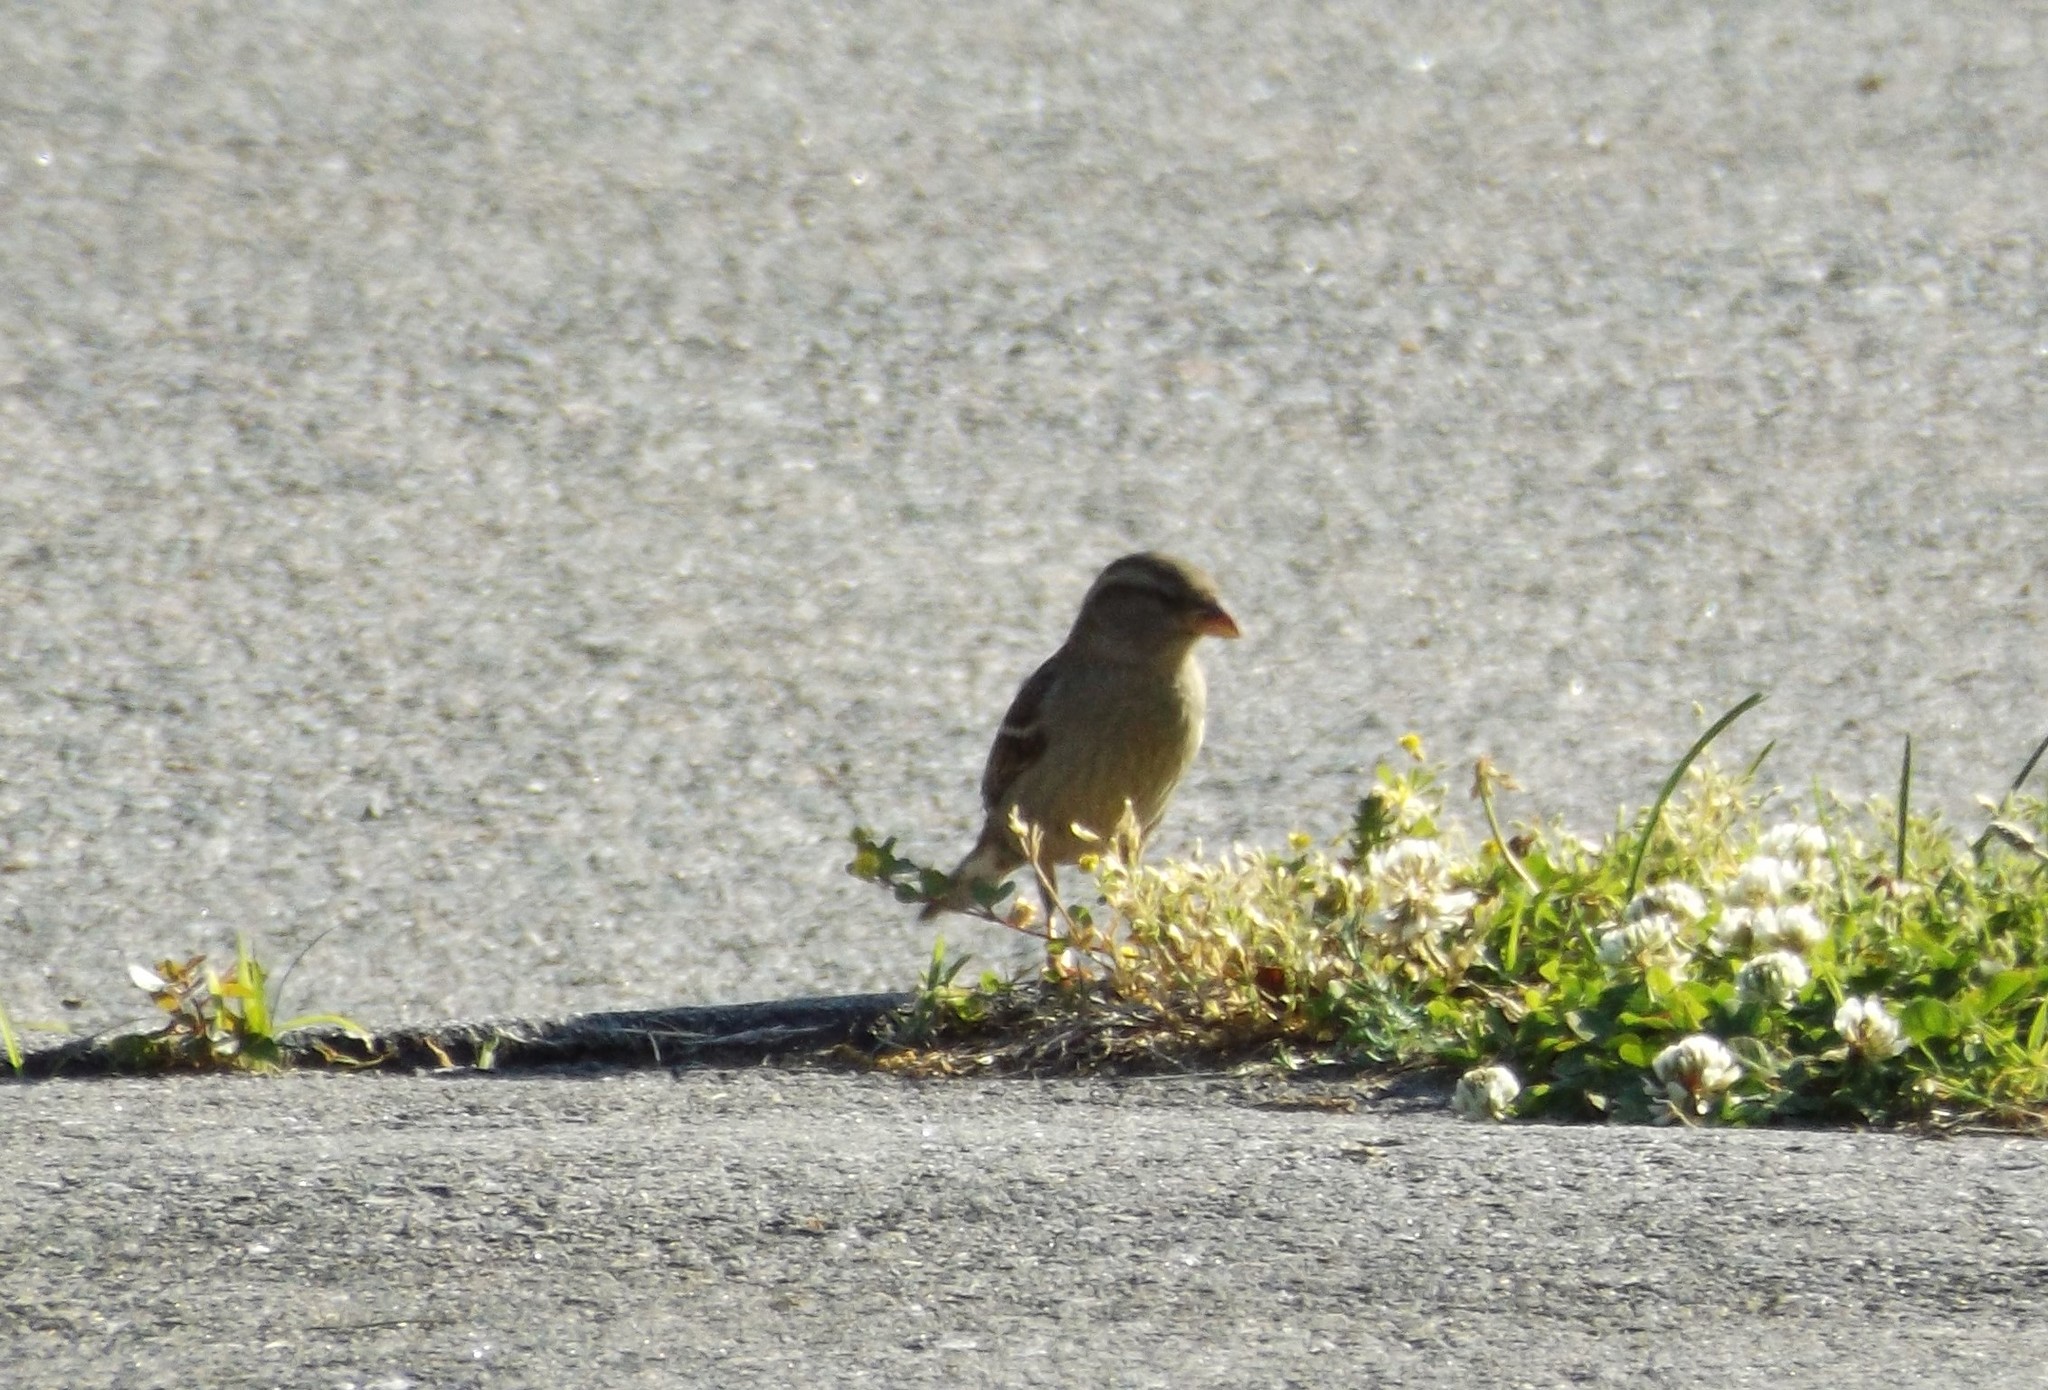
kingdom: Animalia
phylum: Chordata
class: Aves
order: Passeriformes
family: Passeridae
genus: Passer
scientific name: Passer domesticus
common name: House sparrow
